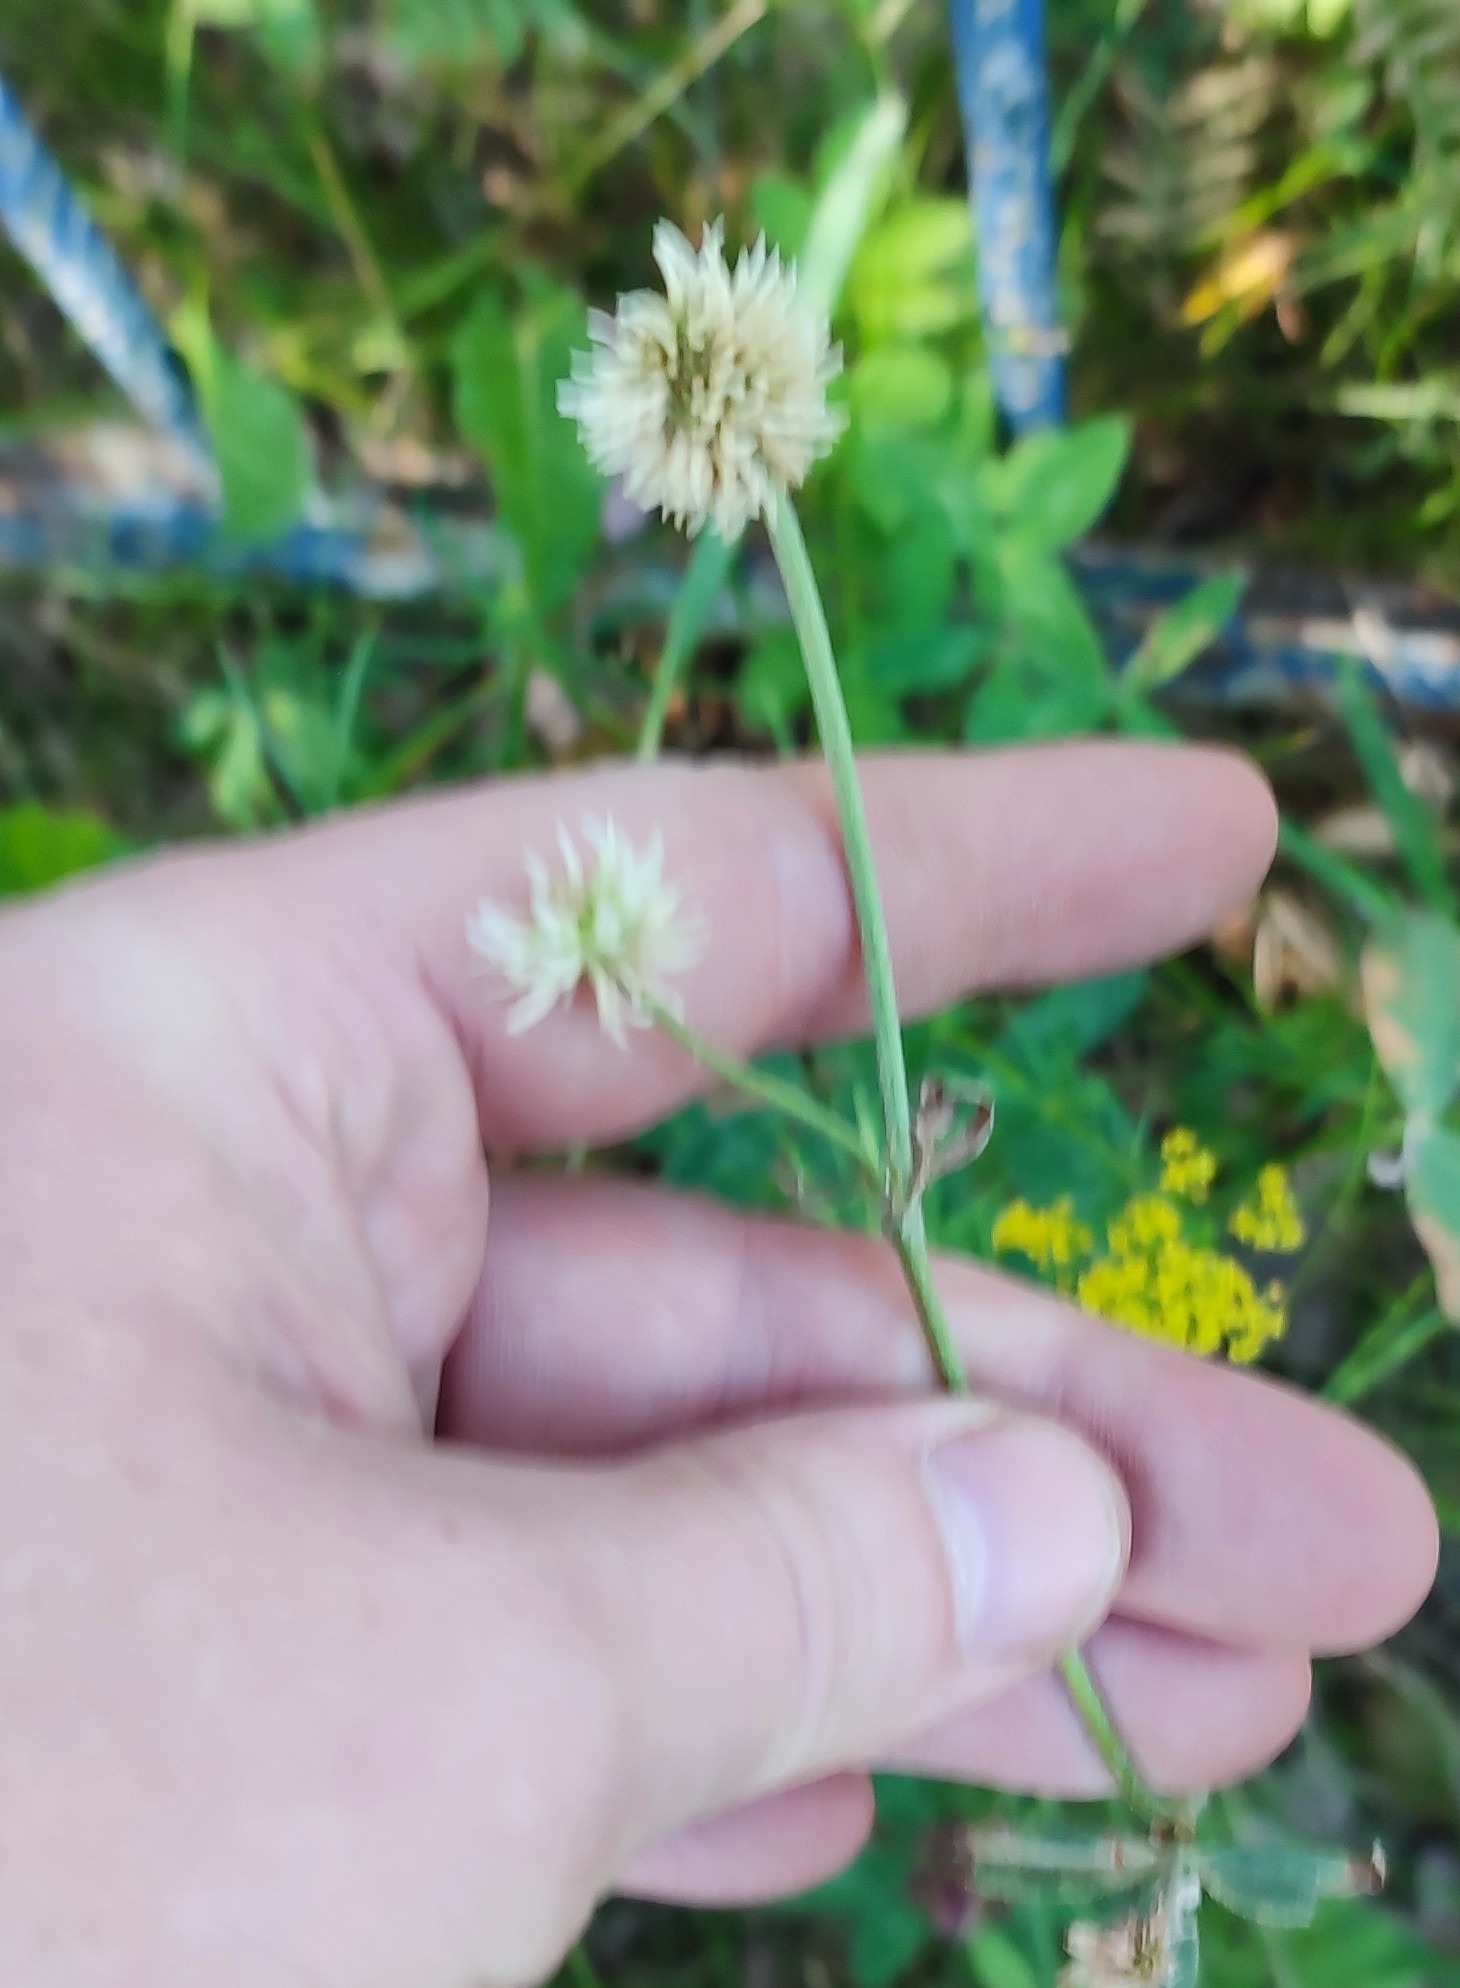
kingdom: Plantae
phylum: Tracheophyta
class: Magnoliopsida
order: Fabales
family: Fabaceae
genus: Trifolium
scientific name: Trifolium montanum
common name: Mountain clover
